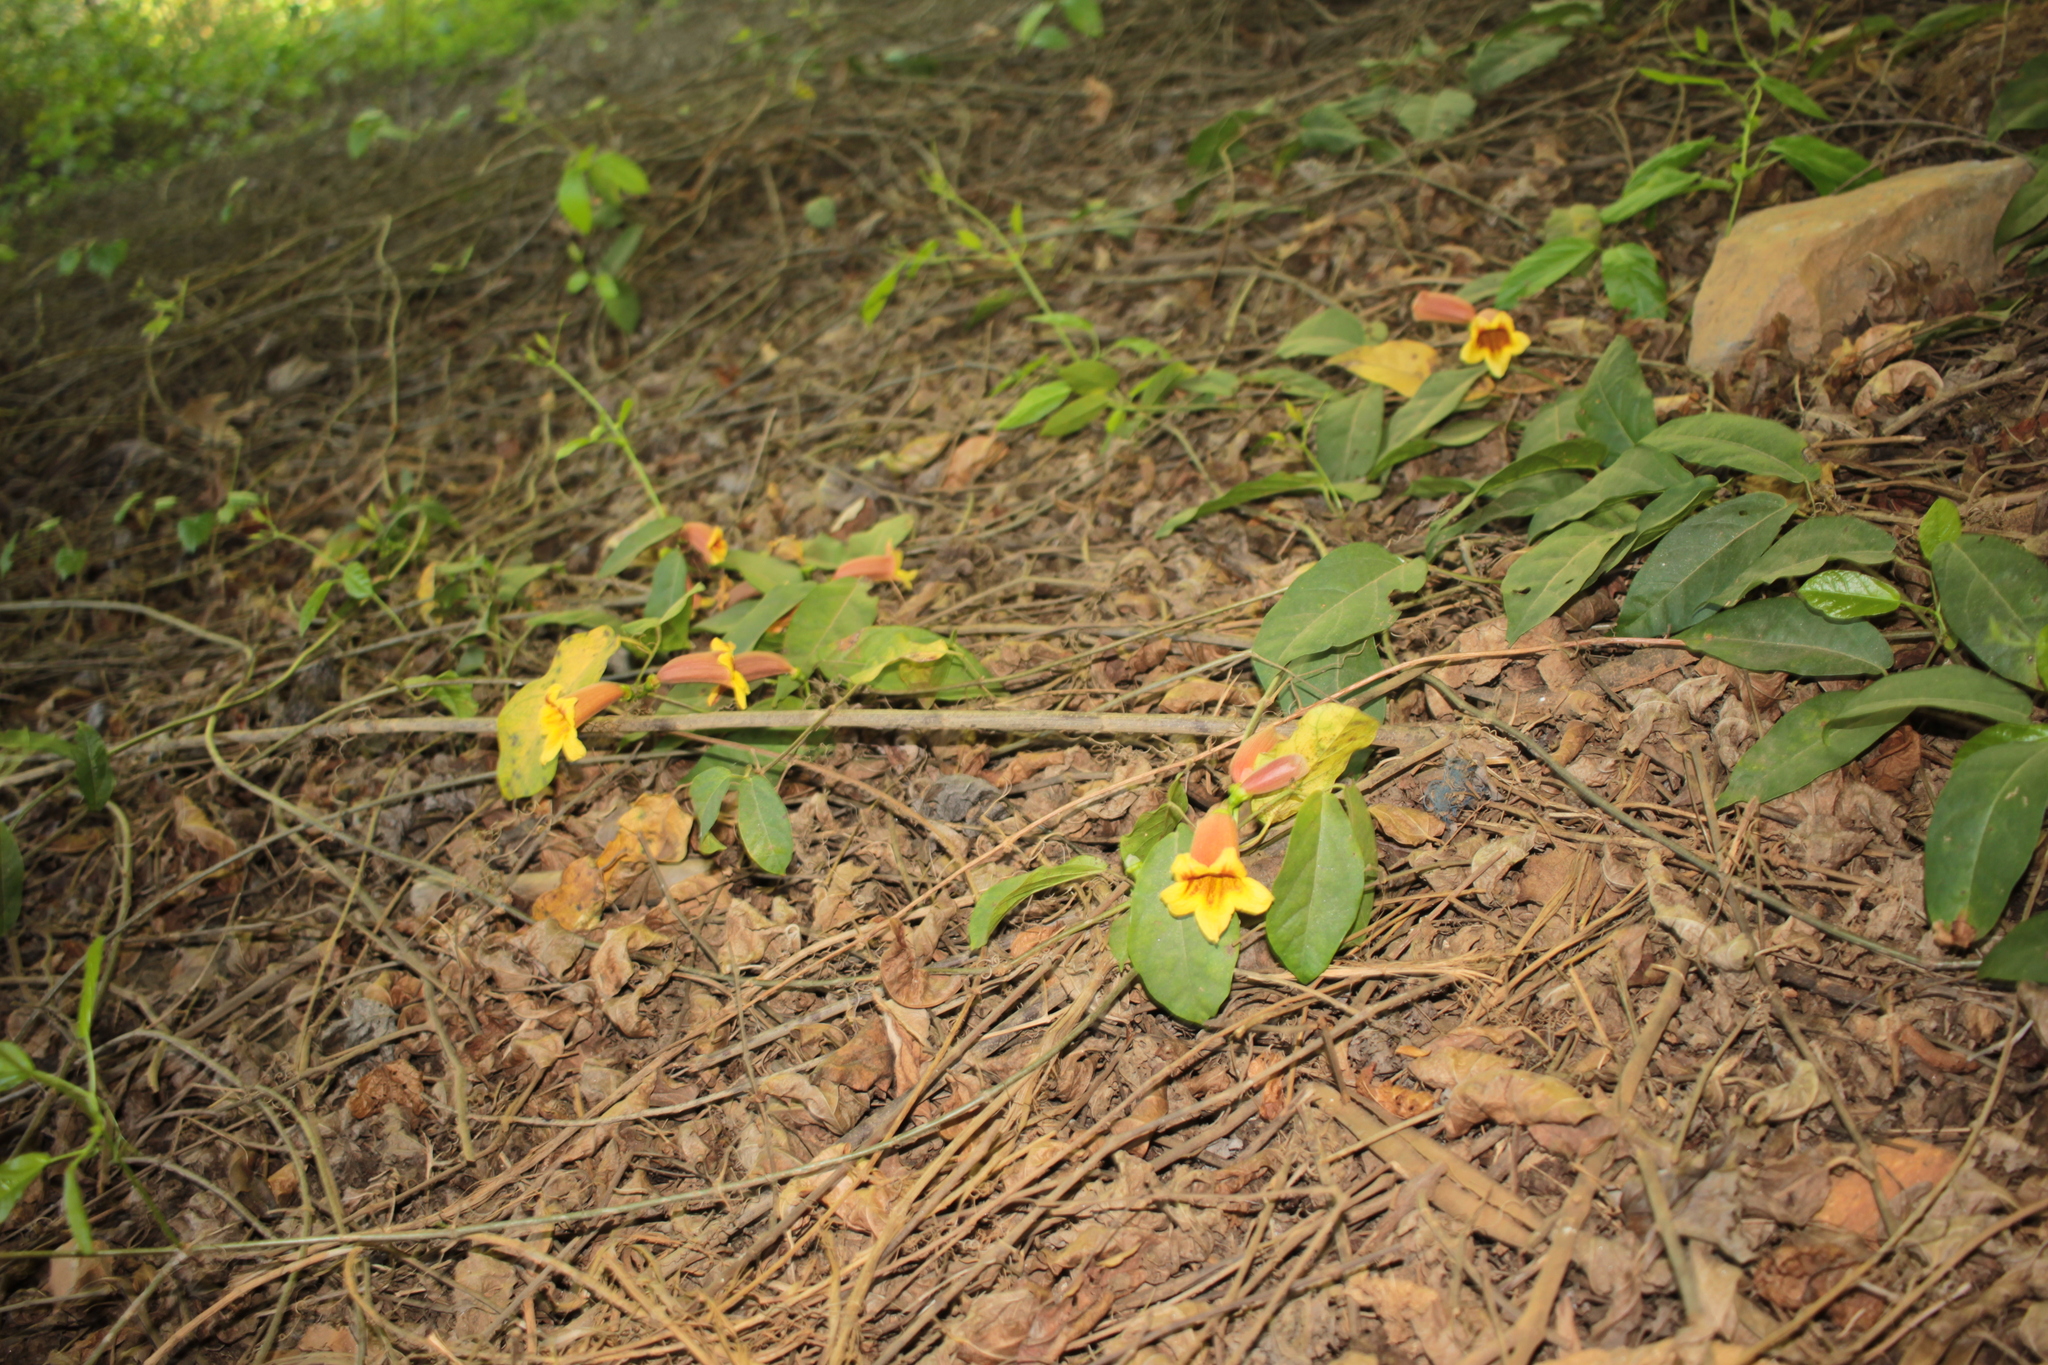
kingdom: Plantae
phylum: Tracheophyta
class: Magnoliopsida
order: Lamiales
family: Bignoniaceae
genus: Bignonia
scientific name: Bignonia capreolata
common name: Crossvine
